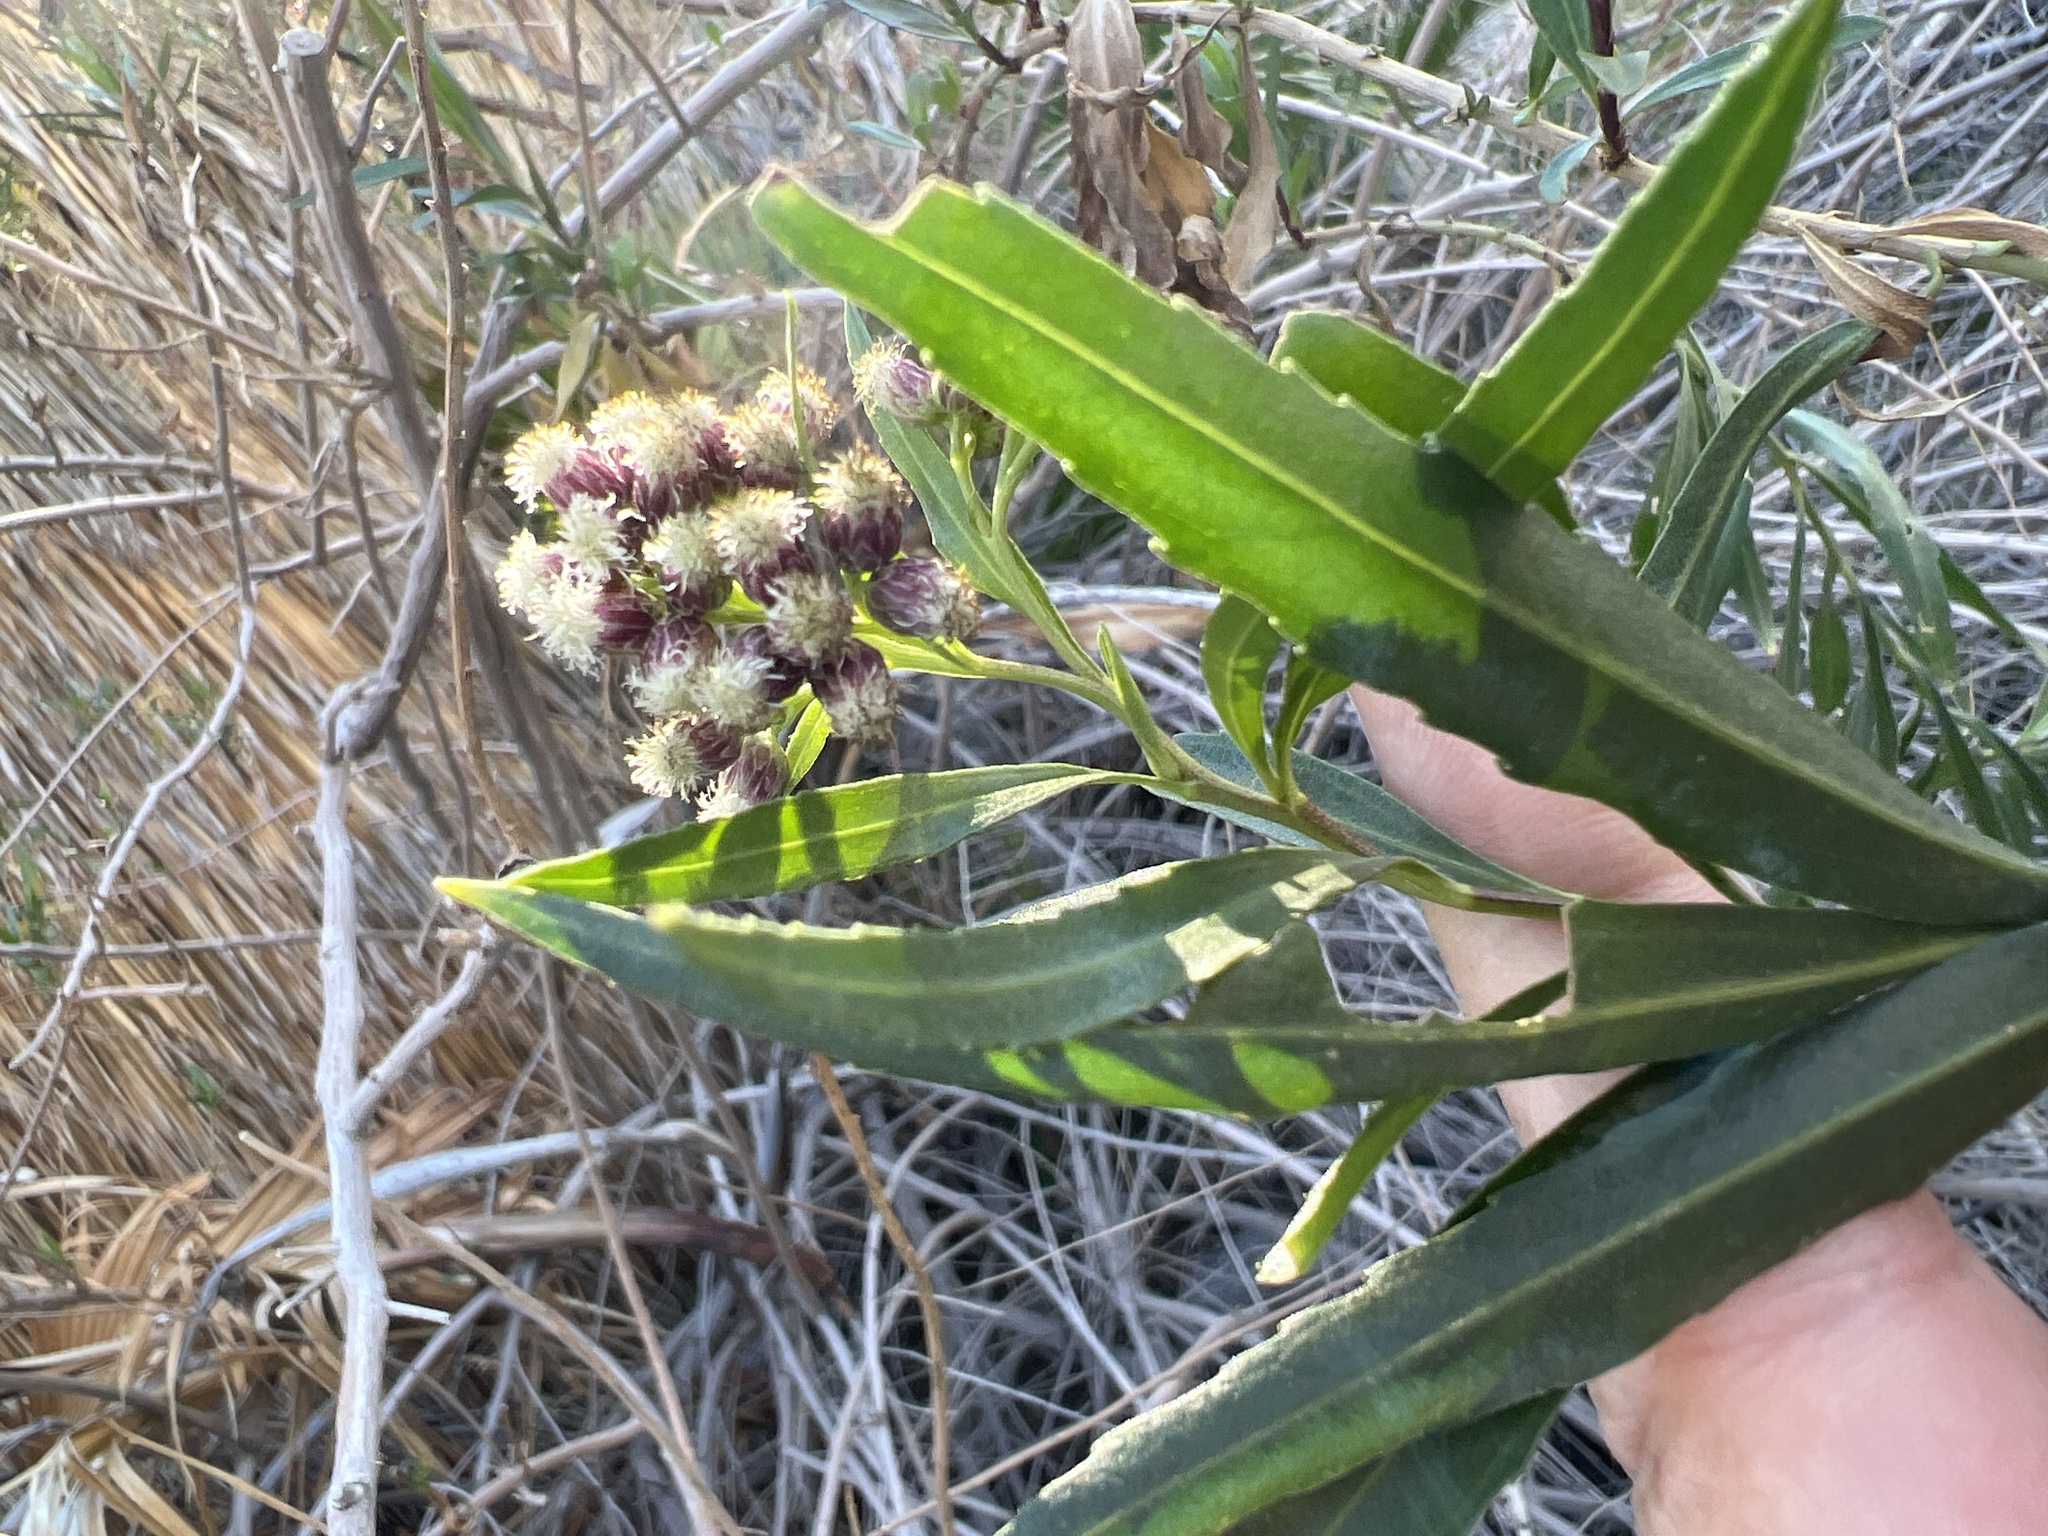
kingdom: Plantae
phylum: Tracheophyta
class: Magnoliopsida
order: Asterales
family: Asteraceae
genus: Baccharis
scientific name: Baccharis salicifolia
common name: Sticky baccharis
